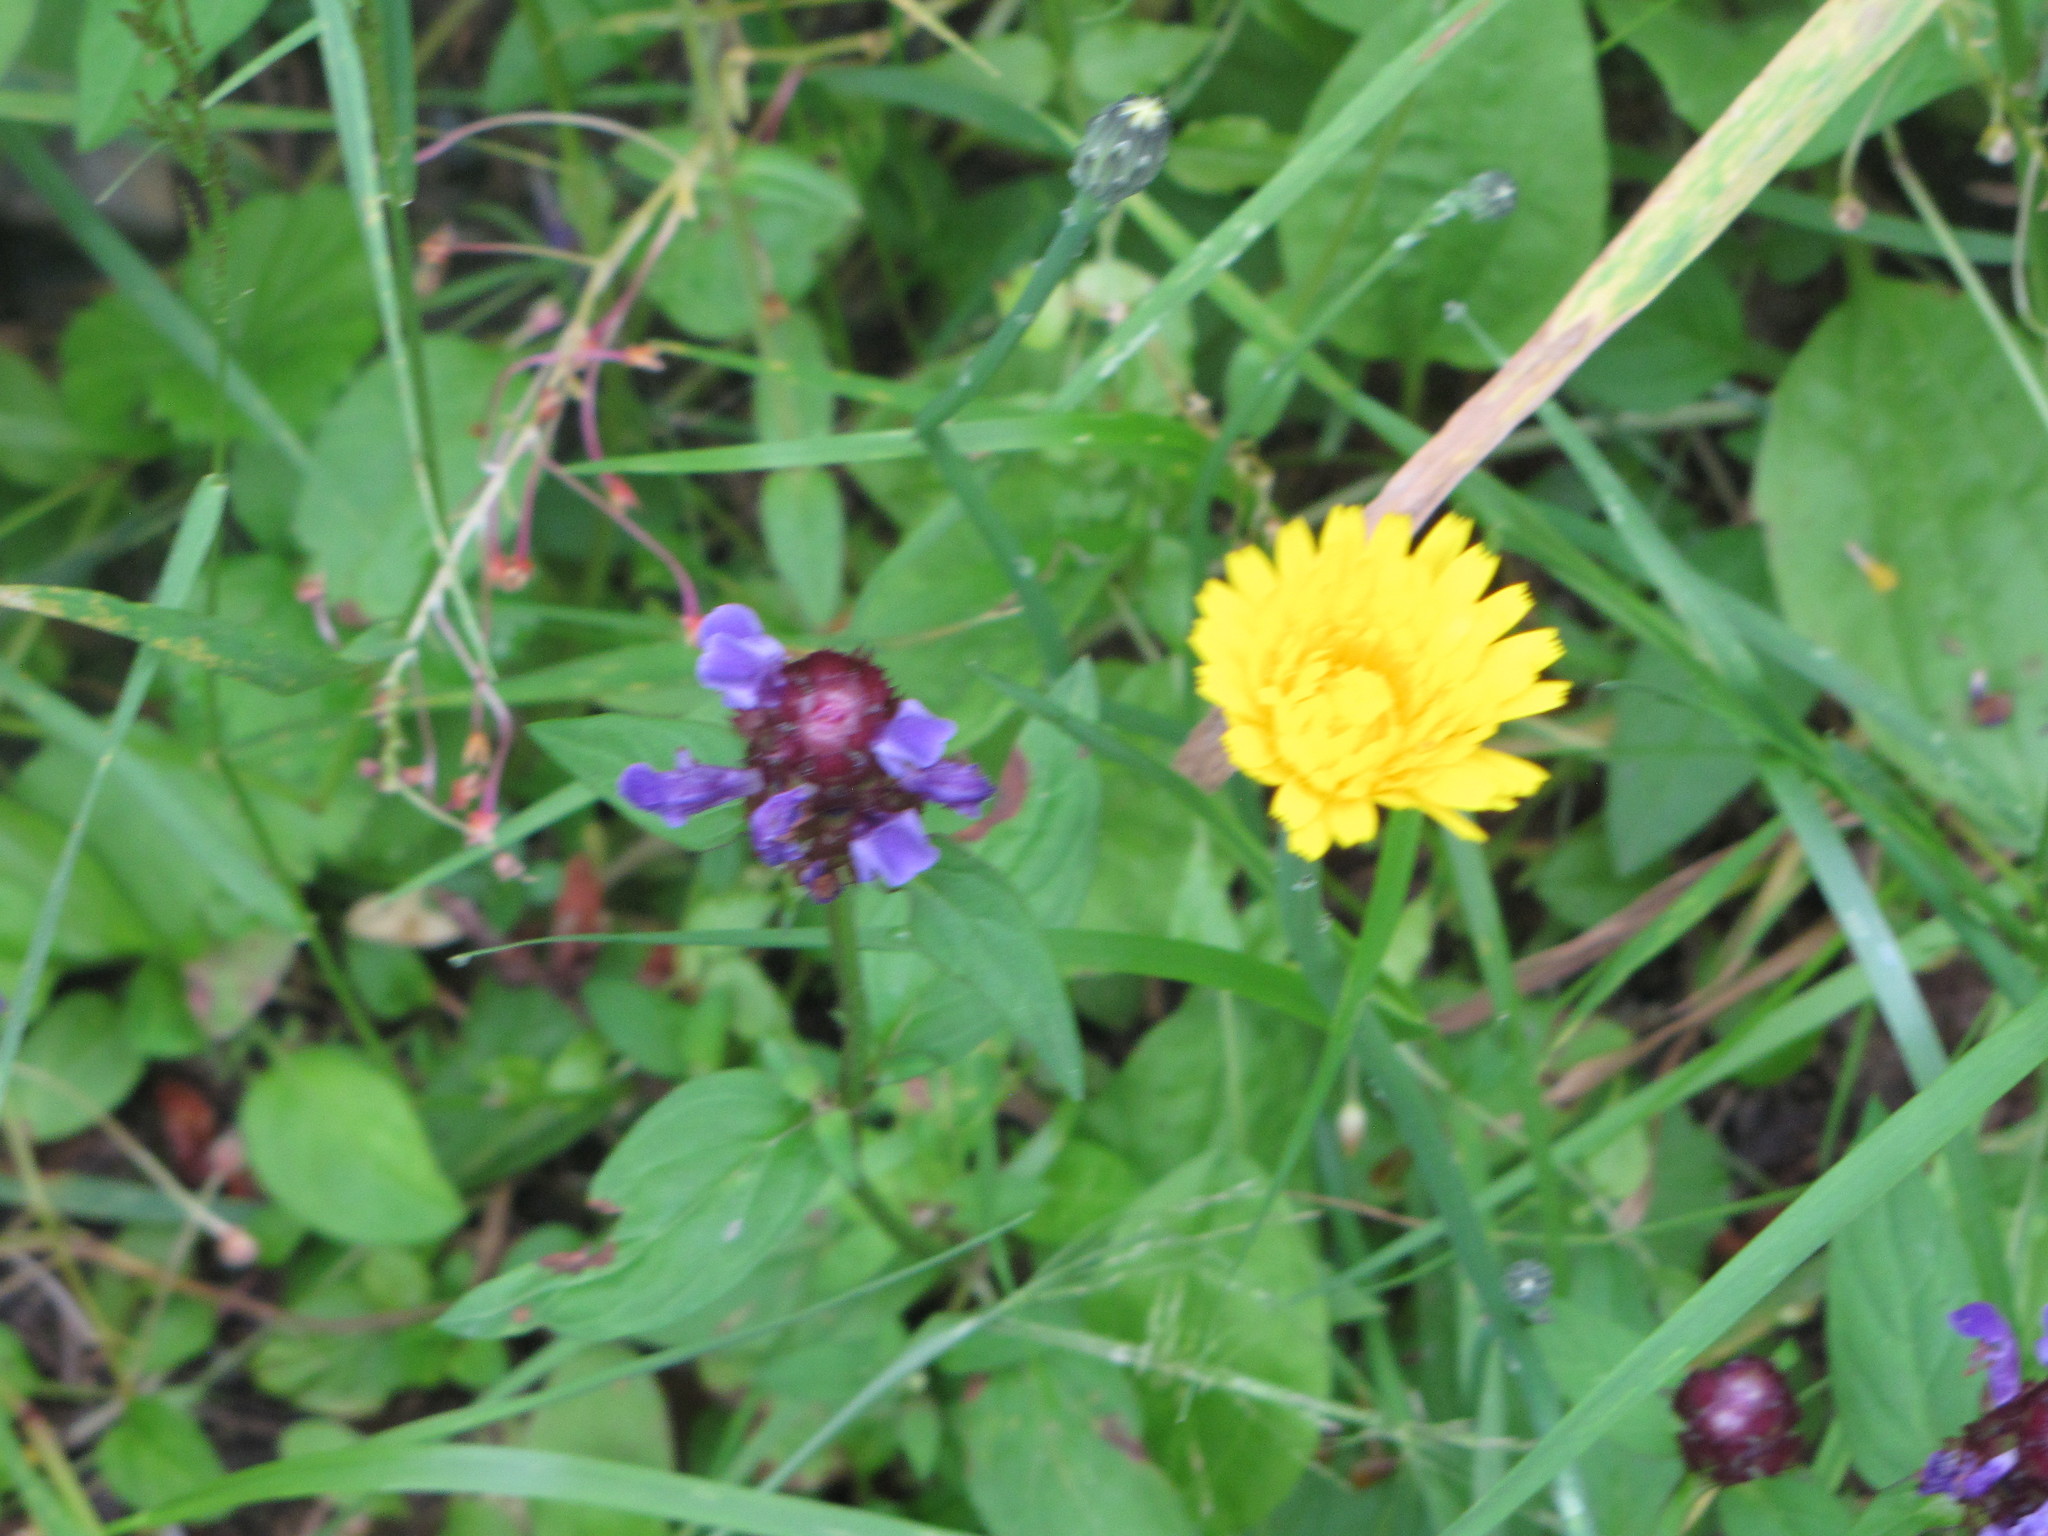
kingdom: Plantae
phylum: Tracheophyta
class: Magnoliopsida
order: Lamiales
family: Lamiaceae
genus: Prunella
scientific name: Prunella vulgaris
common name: Heal-all
